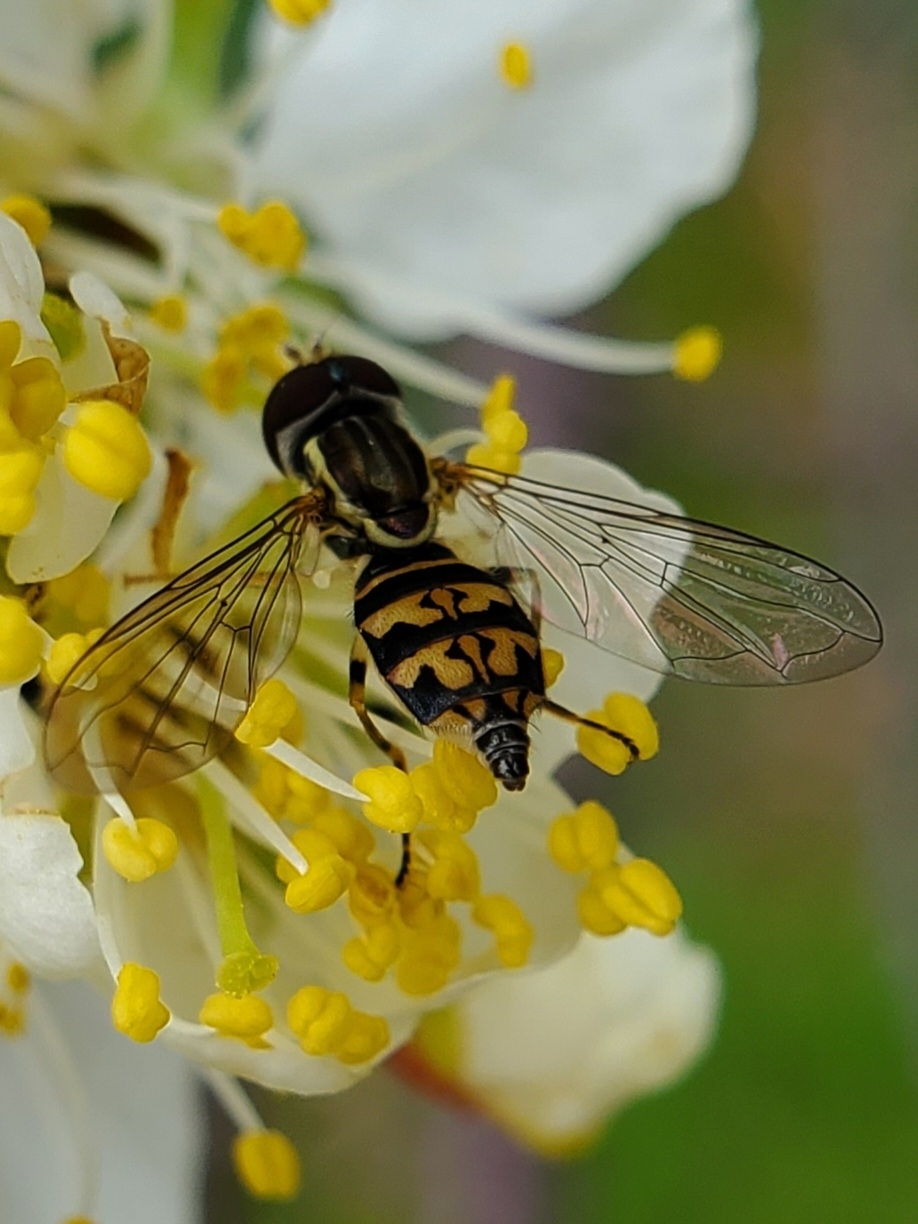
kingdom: Animalia
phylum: Arthropoda
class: Insecta
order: Diptera
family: Syrphidae
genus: Toxomerus
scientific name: Toxomerus geminatus
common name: Eastern calligrapher
